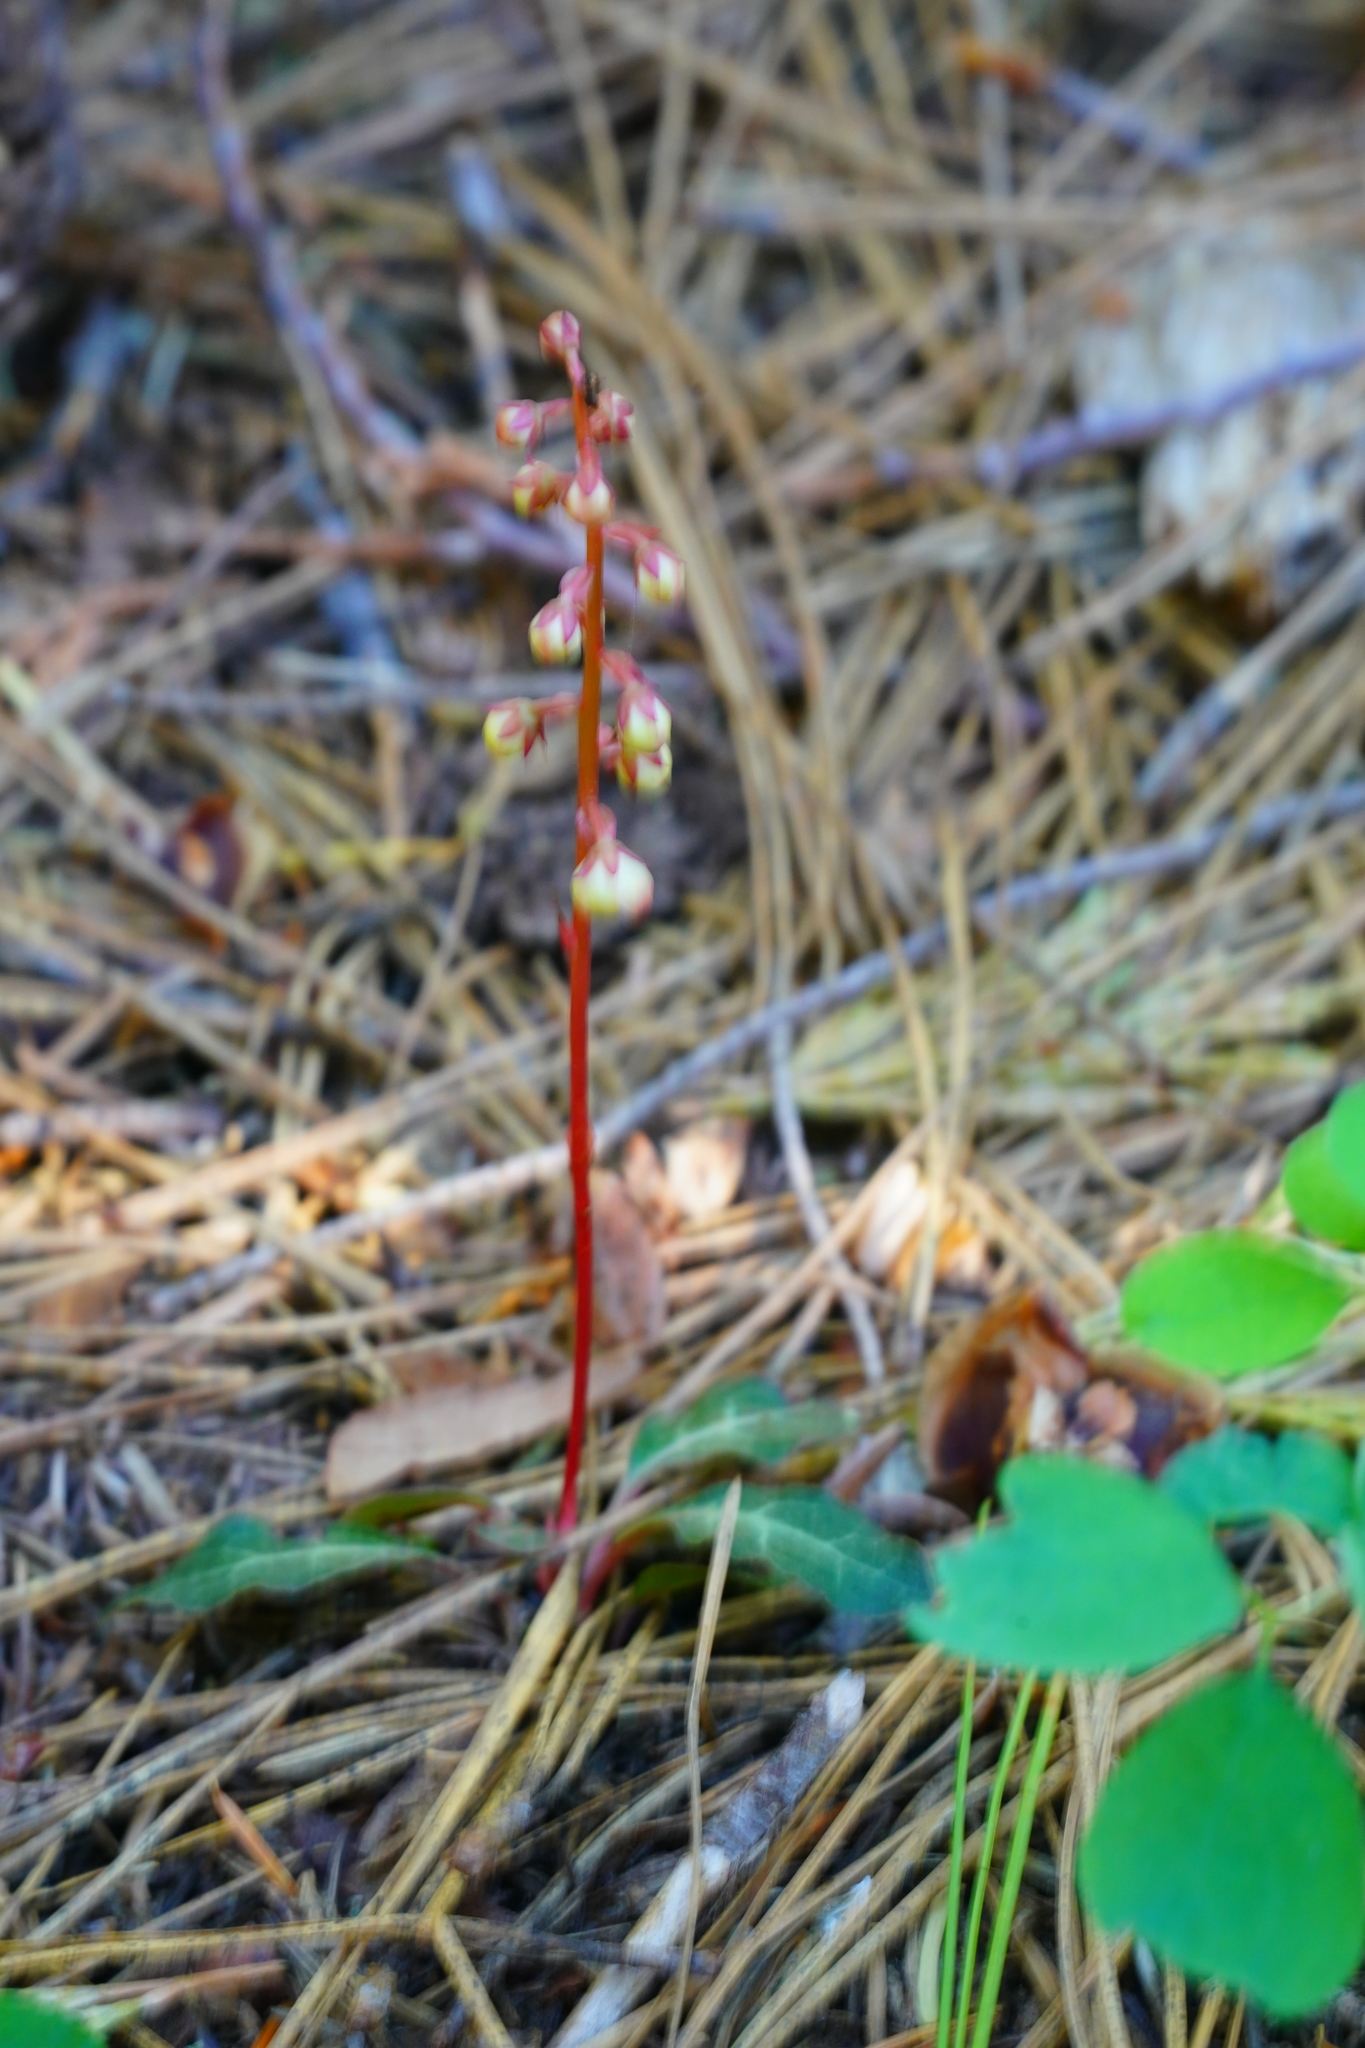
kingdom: Plantae
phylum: Tracheophyta
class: Magnoliopsida
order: Ericales
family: Ericaceae
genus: Pyrola
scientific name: Pyrola picta
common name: White-vein wintergreen
